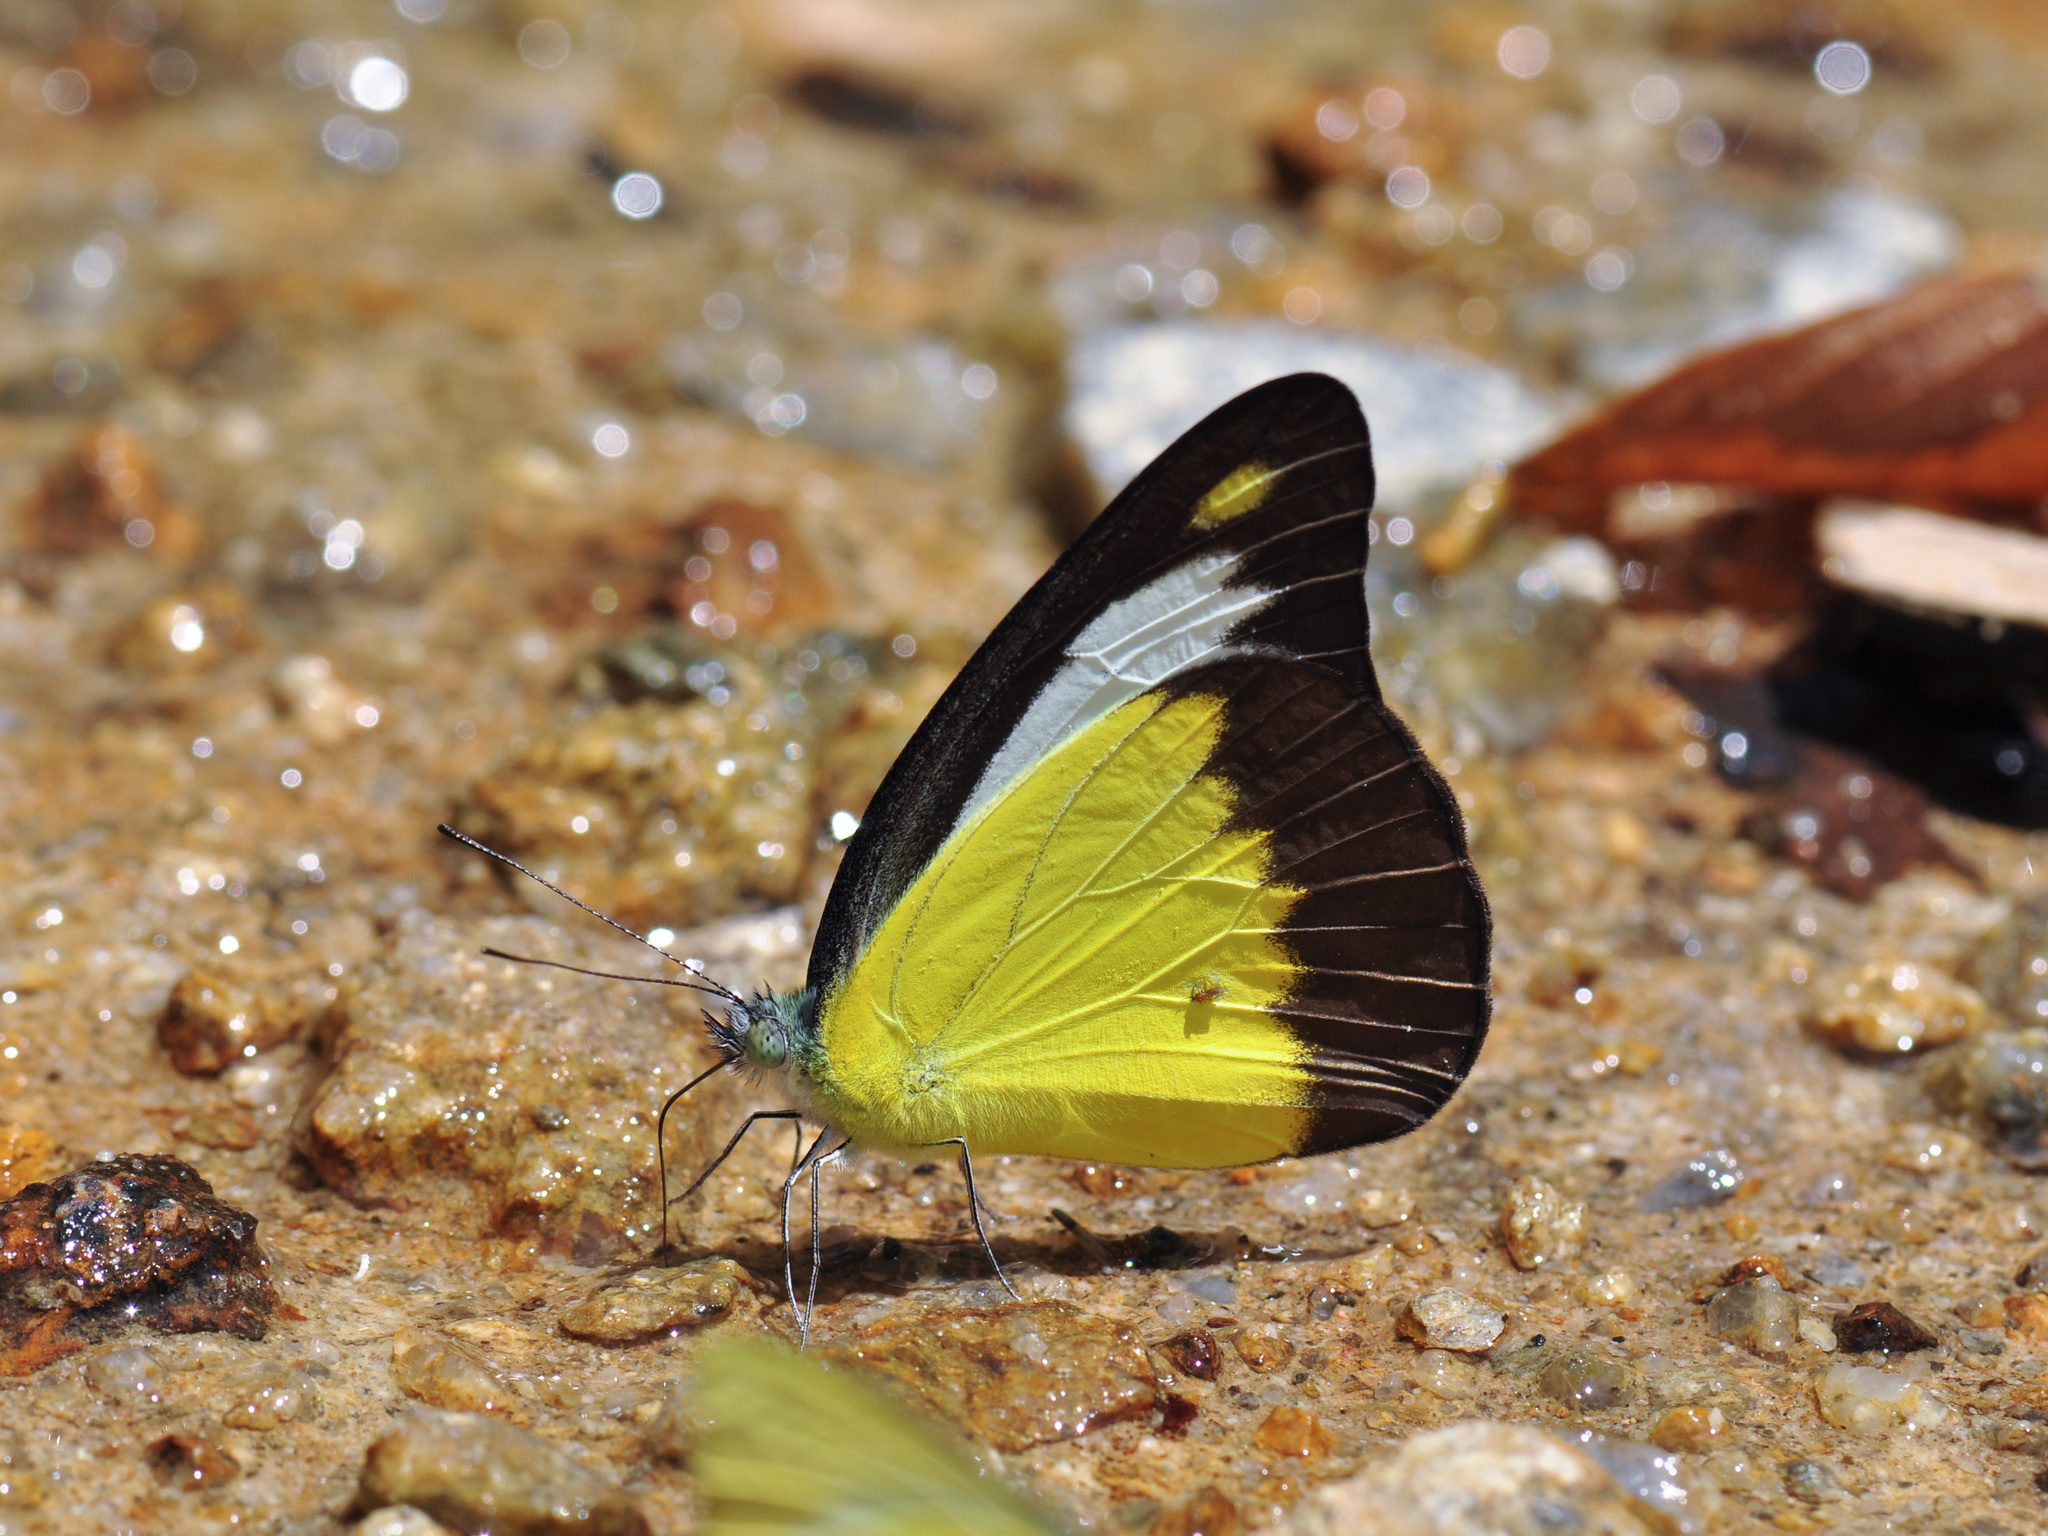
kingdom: Animalia
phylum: Arthropoda
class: Insecta
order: Lepidoptera
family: Pieridae
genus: Appias
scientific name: Appias lyncida
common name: Chocolate albatross
